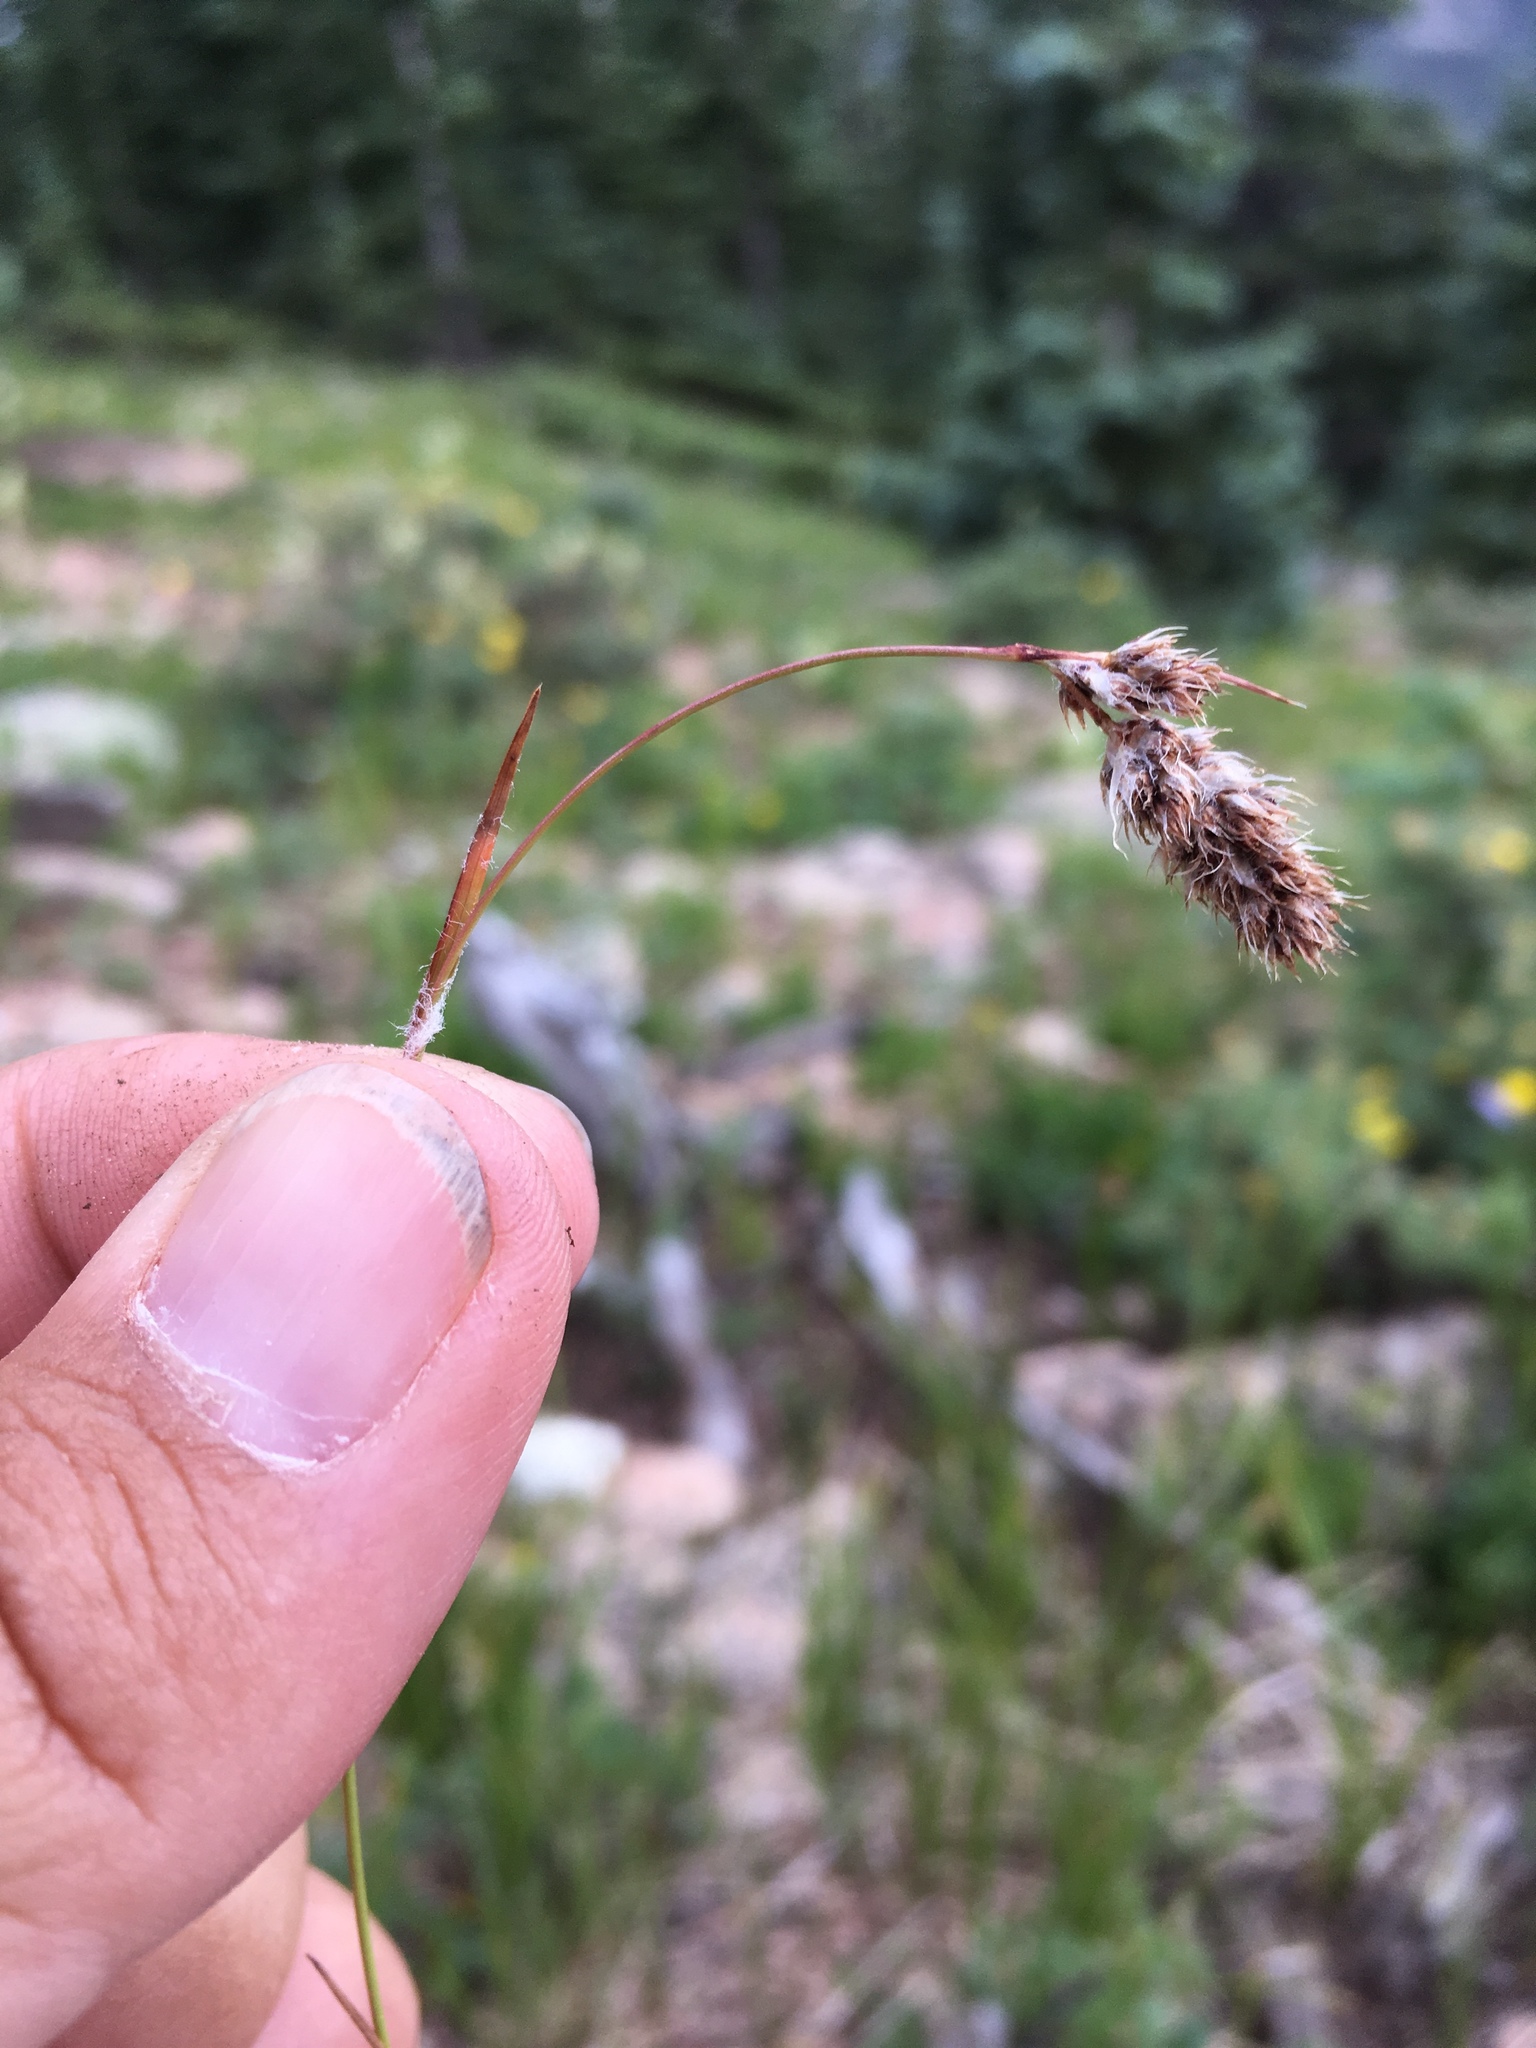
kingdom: Plantae
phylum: Tracheophyta
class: Liliopsida
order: Poales
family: Juncaceae
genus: Luzula
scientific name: Luzula spicata
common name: Spiked wood-rush
